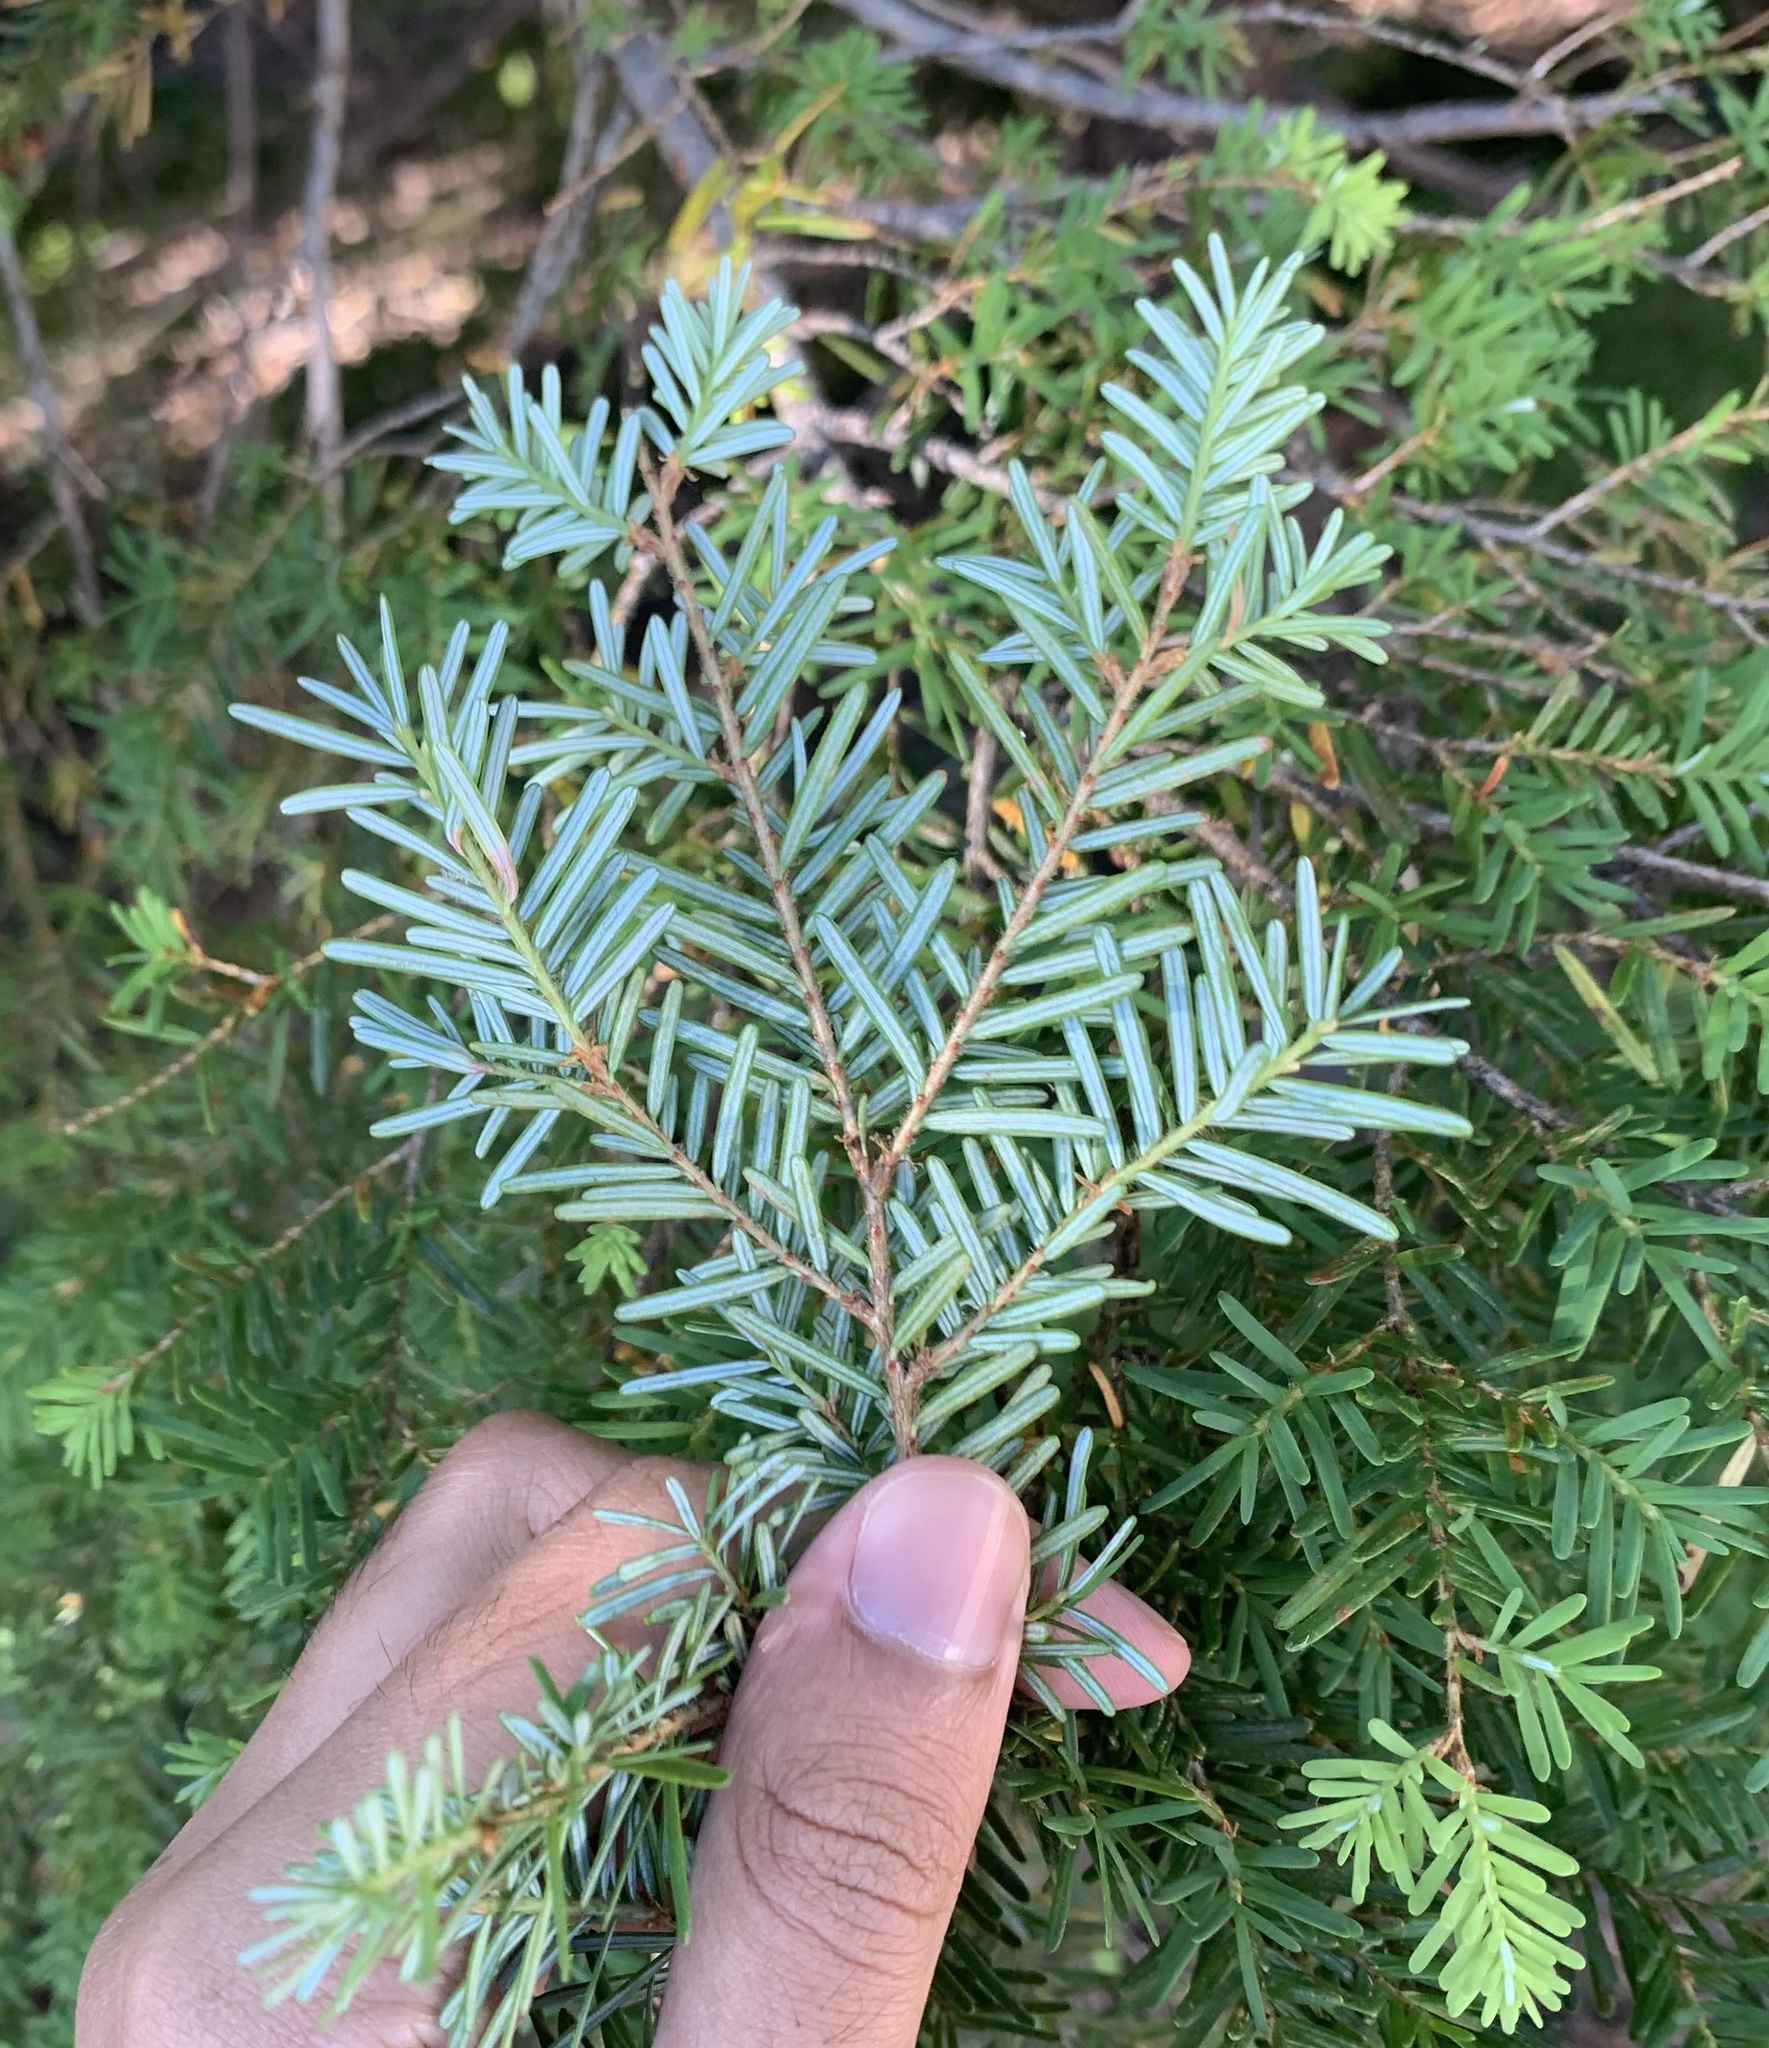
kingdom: Plantae
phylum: Tracheophyta
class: Pinopsida
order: Pinales
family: Pinaceae
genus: Tsuga
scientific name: Tsuga heterophylla
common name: Western hemlock
